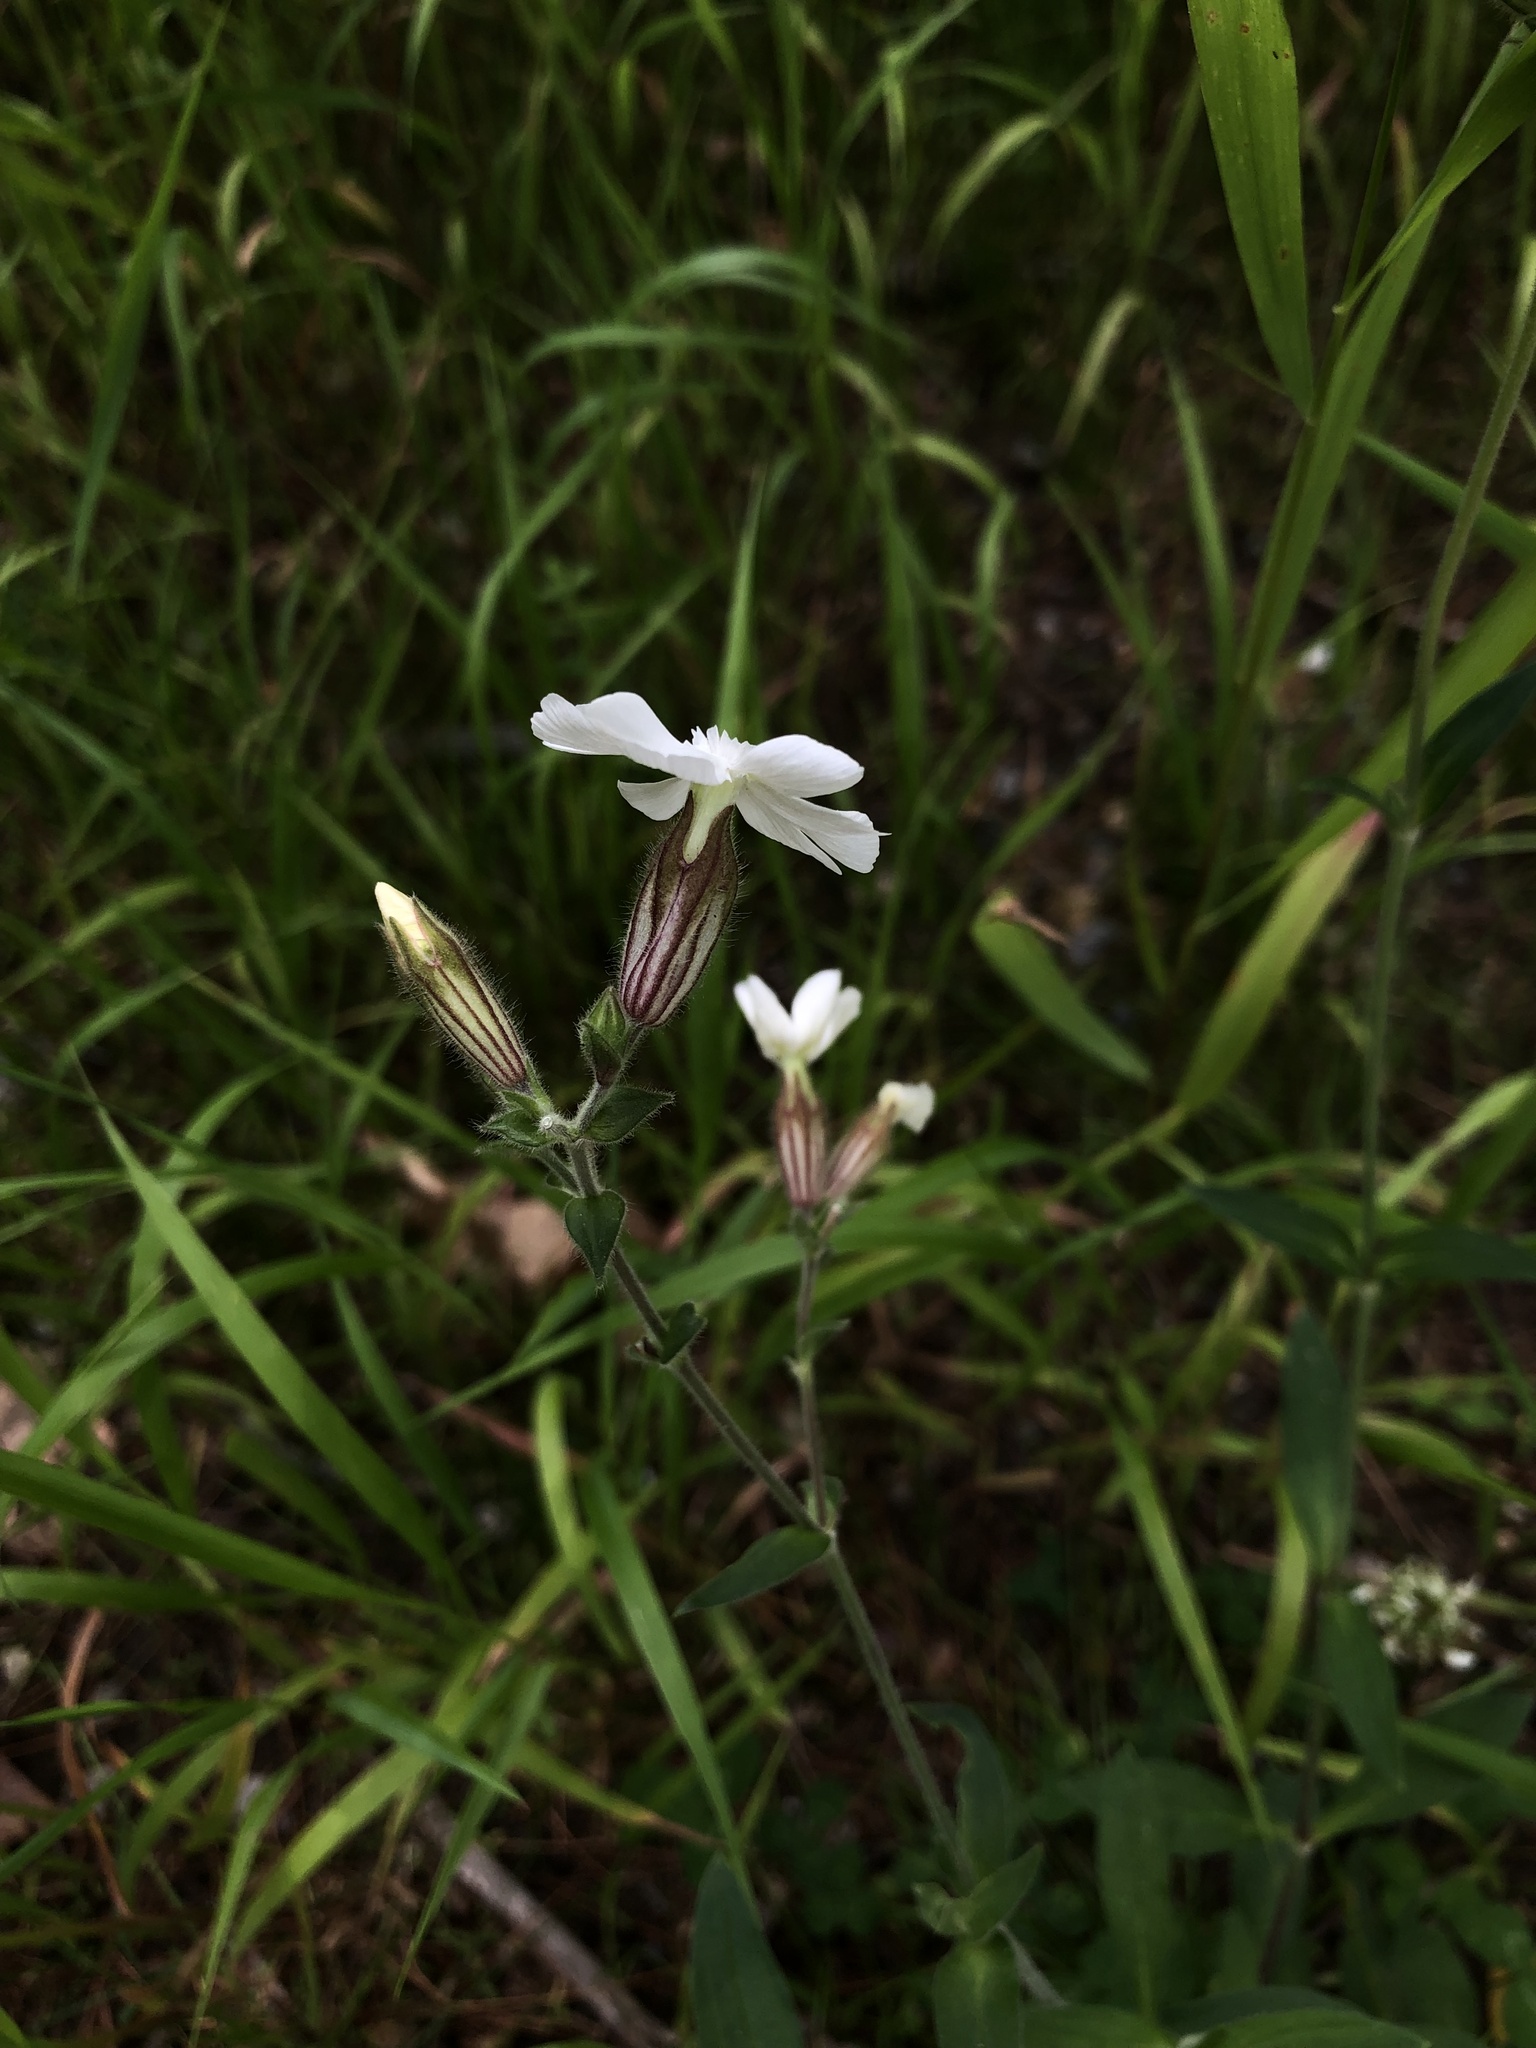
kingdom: Plantae
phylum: Tracheophyta
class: Magnoliopsida
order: Caryophyllales
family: Caryophyllaceae
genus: Silene
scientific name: Silene latifolia
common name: White campion
